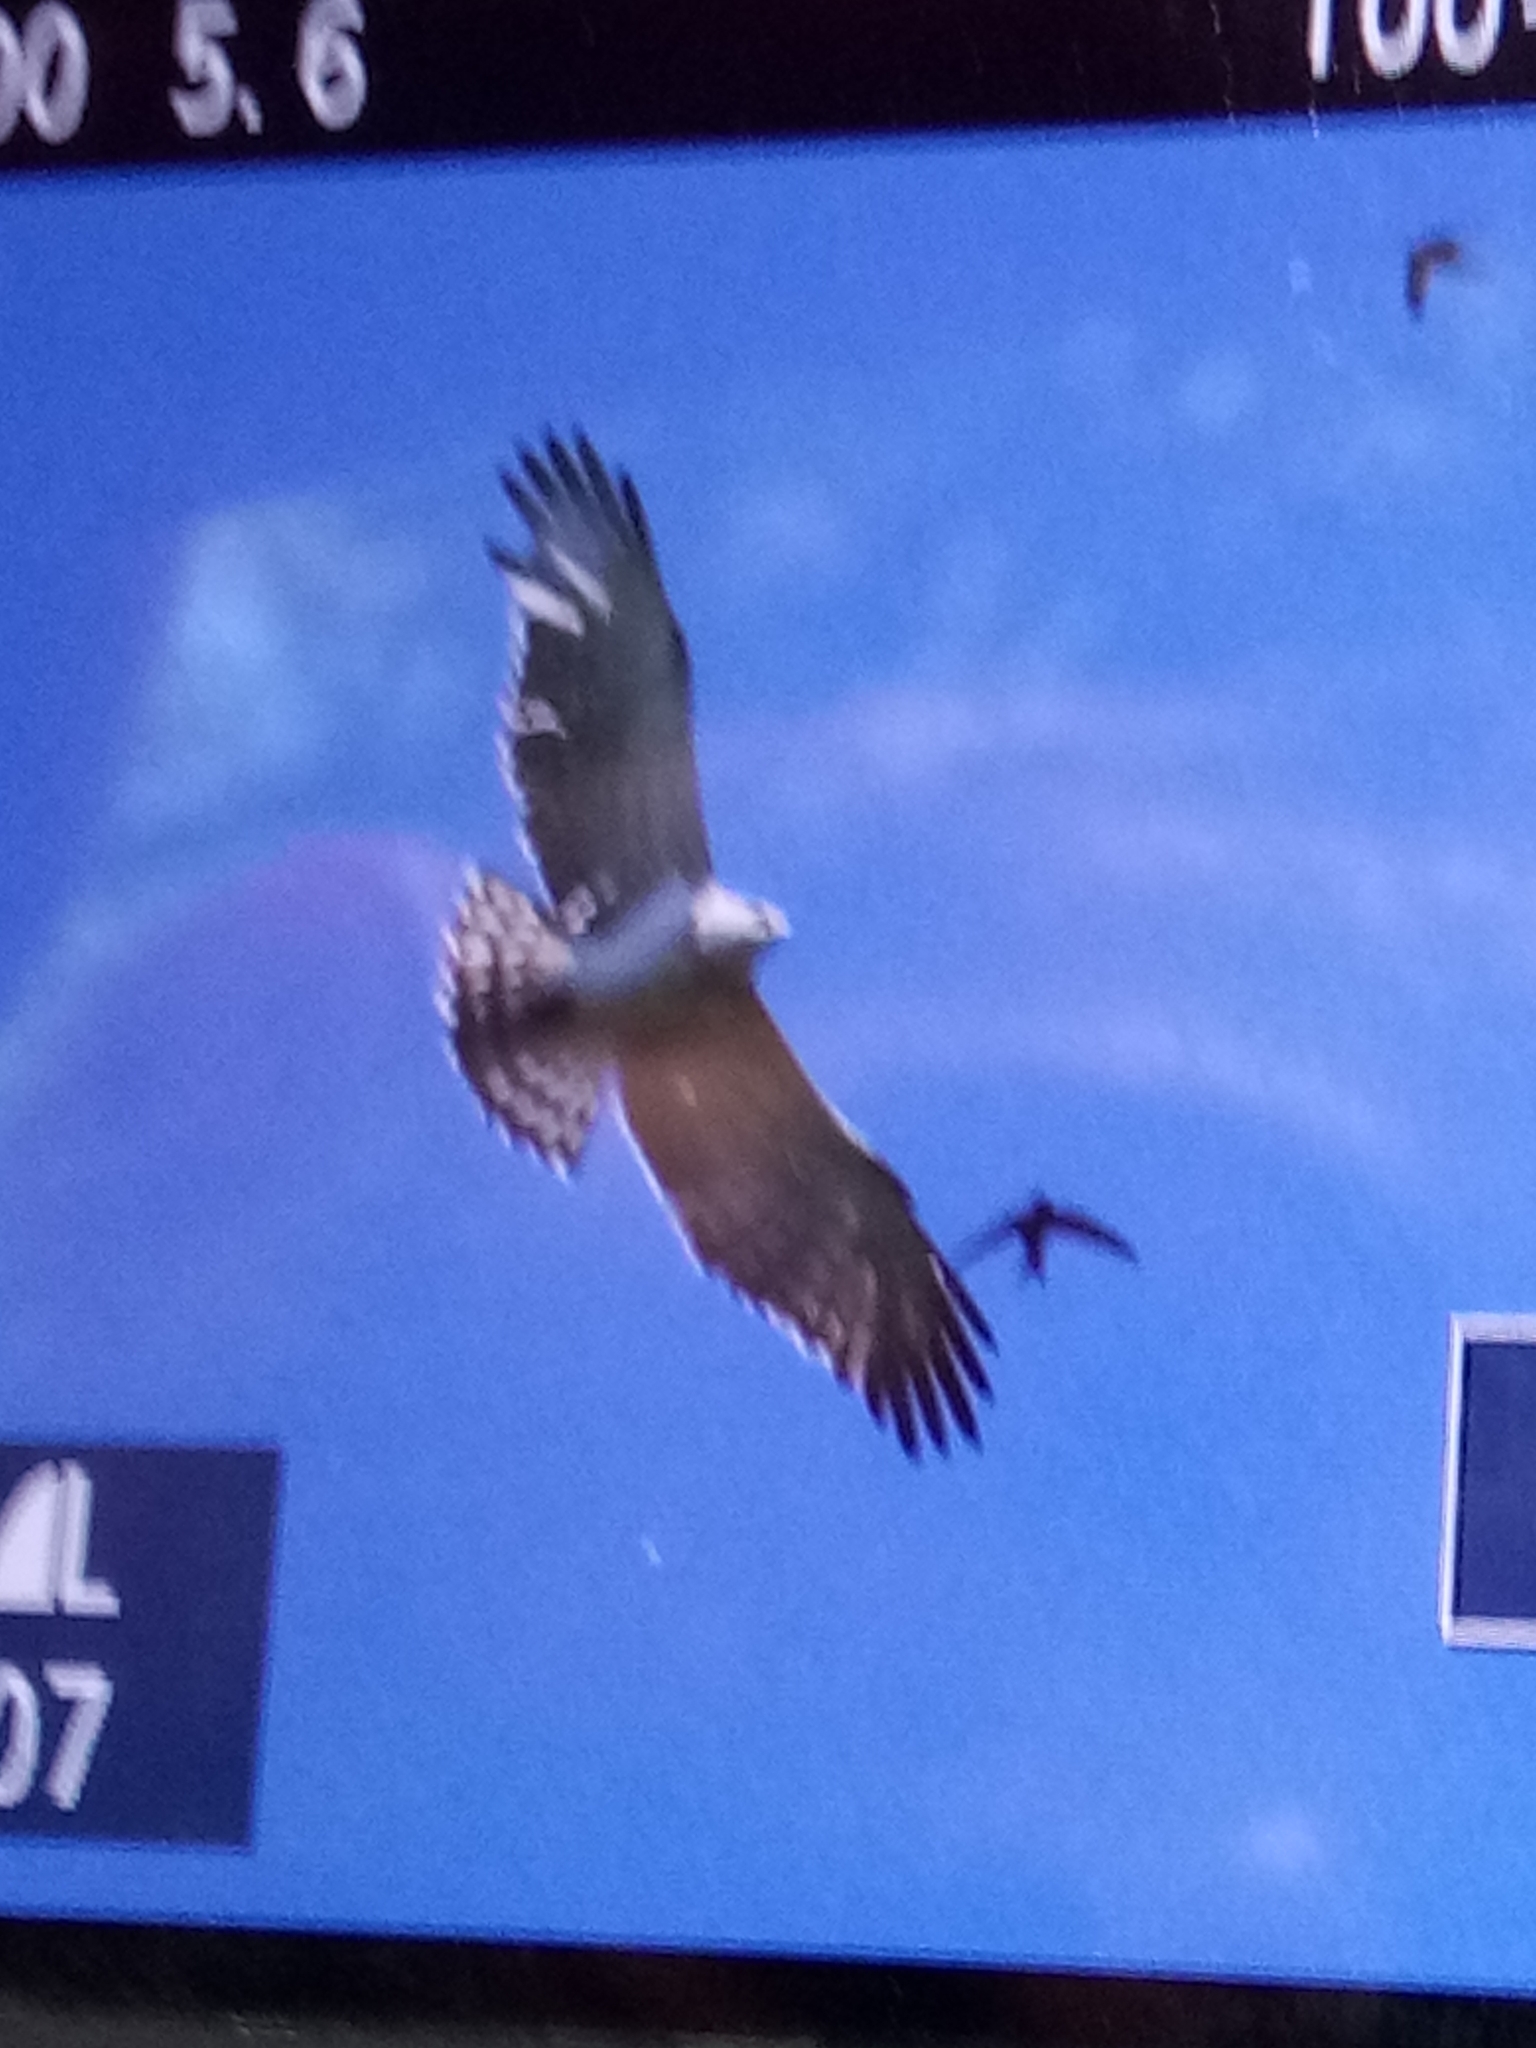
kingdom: Animalia
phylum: Chordata
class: Aves
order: Accipitriformes
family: Accipitridae
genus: Circaetus
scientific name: Circaetus gallicus
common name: Short-toed snake eagle
